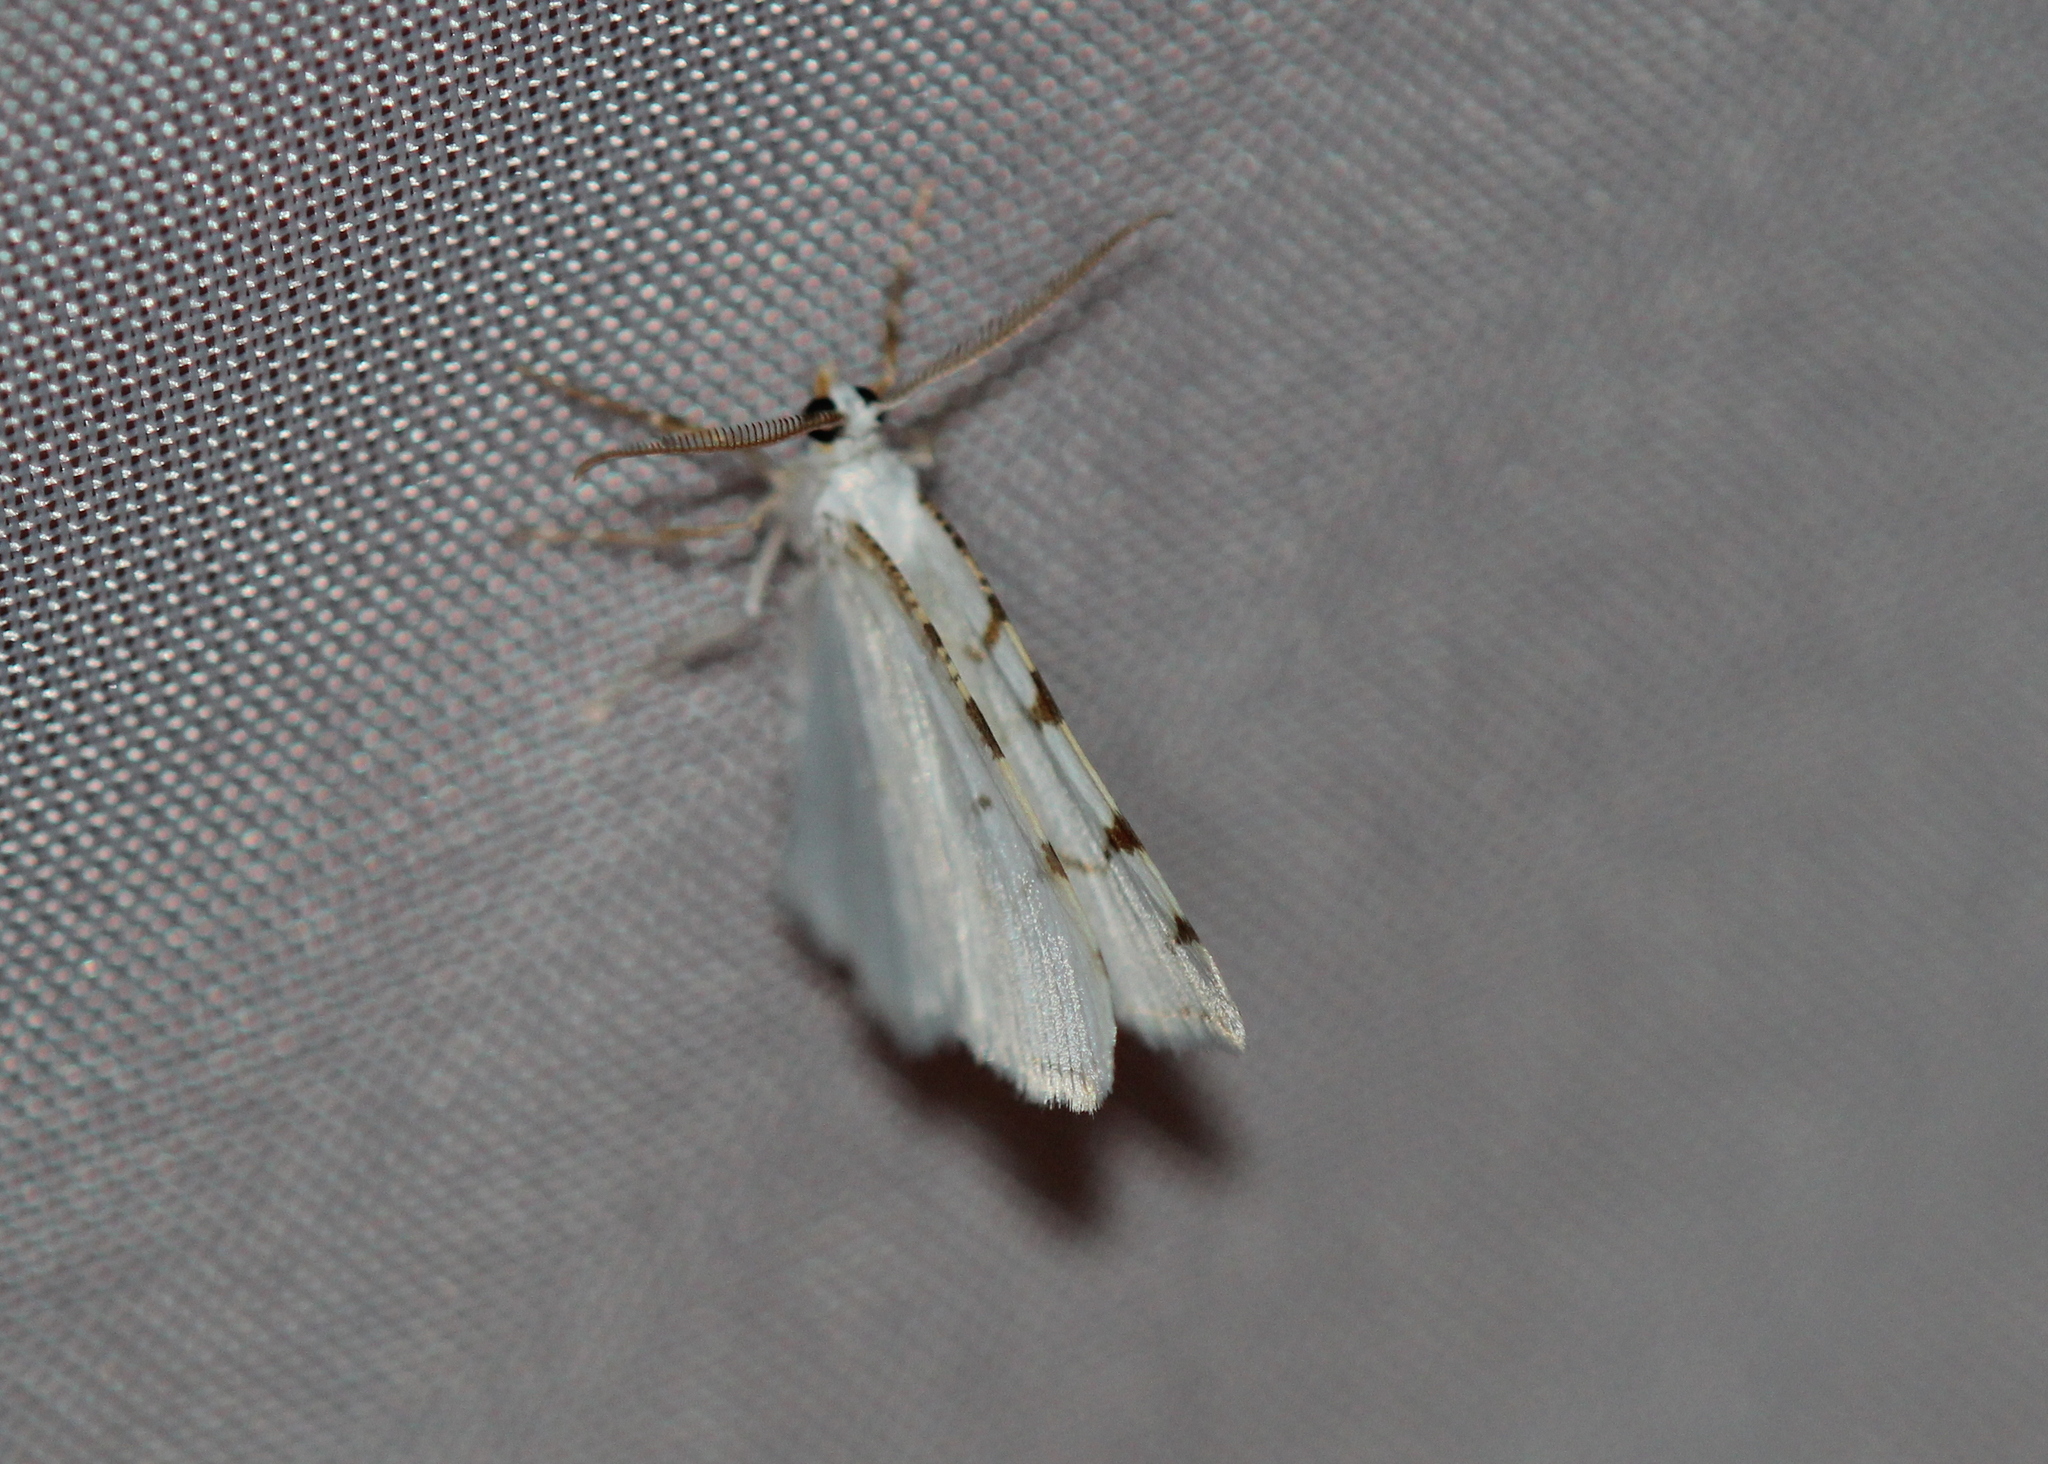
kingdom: Animalia
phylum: Arthropoda
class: Insecta
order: Lepidoptera
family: Geometridae
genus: Macaria
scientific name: Macaria pustularia
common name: Lesser maple spanworm moth
